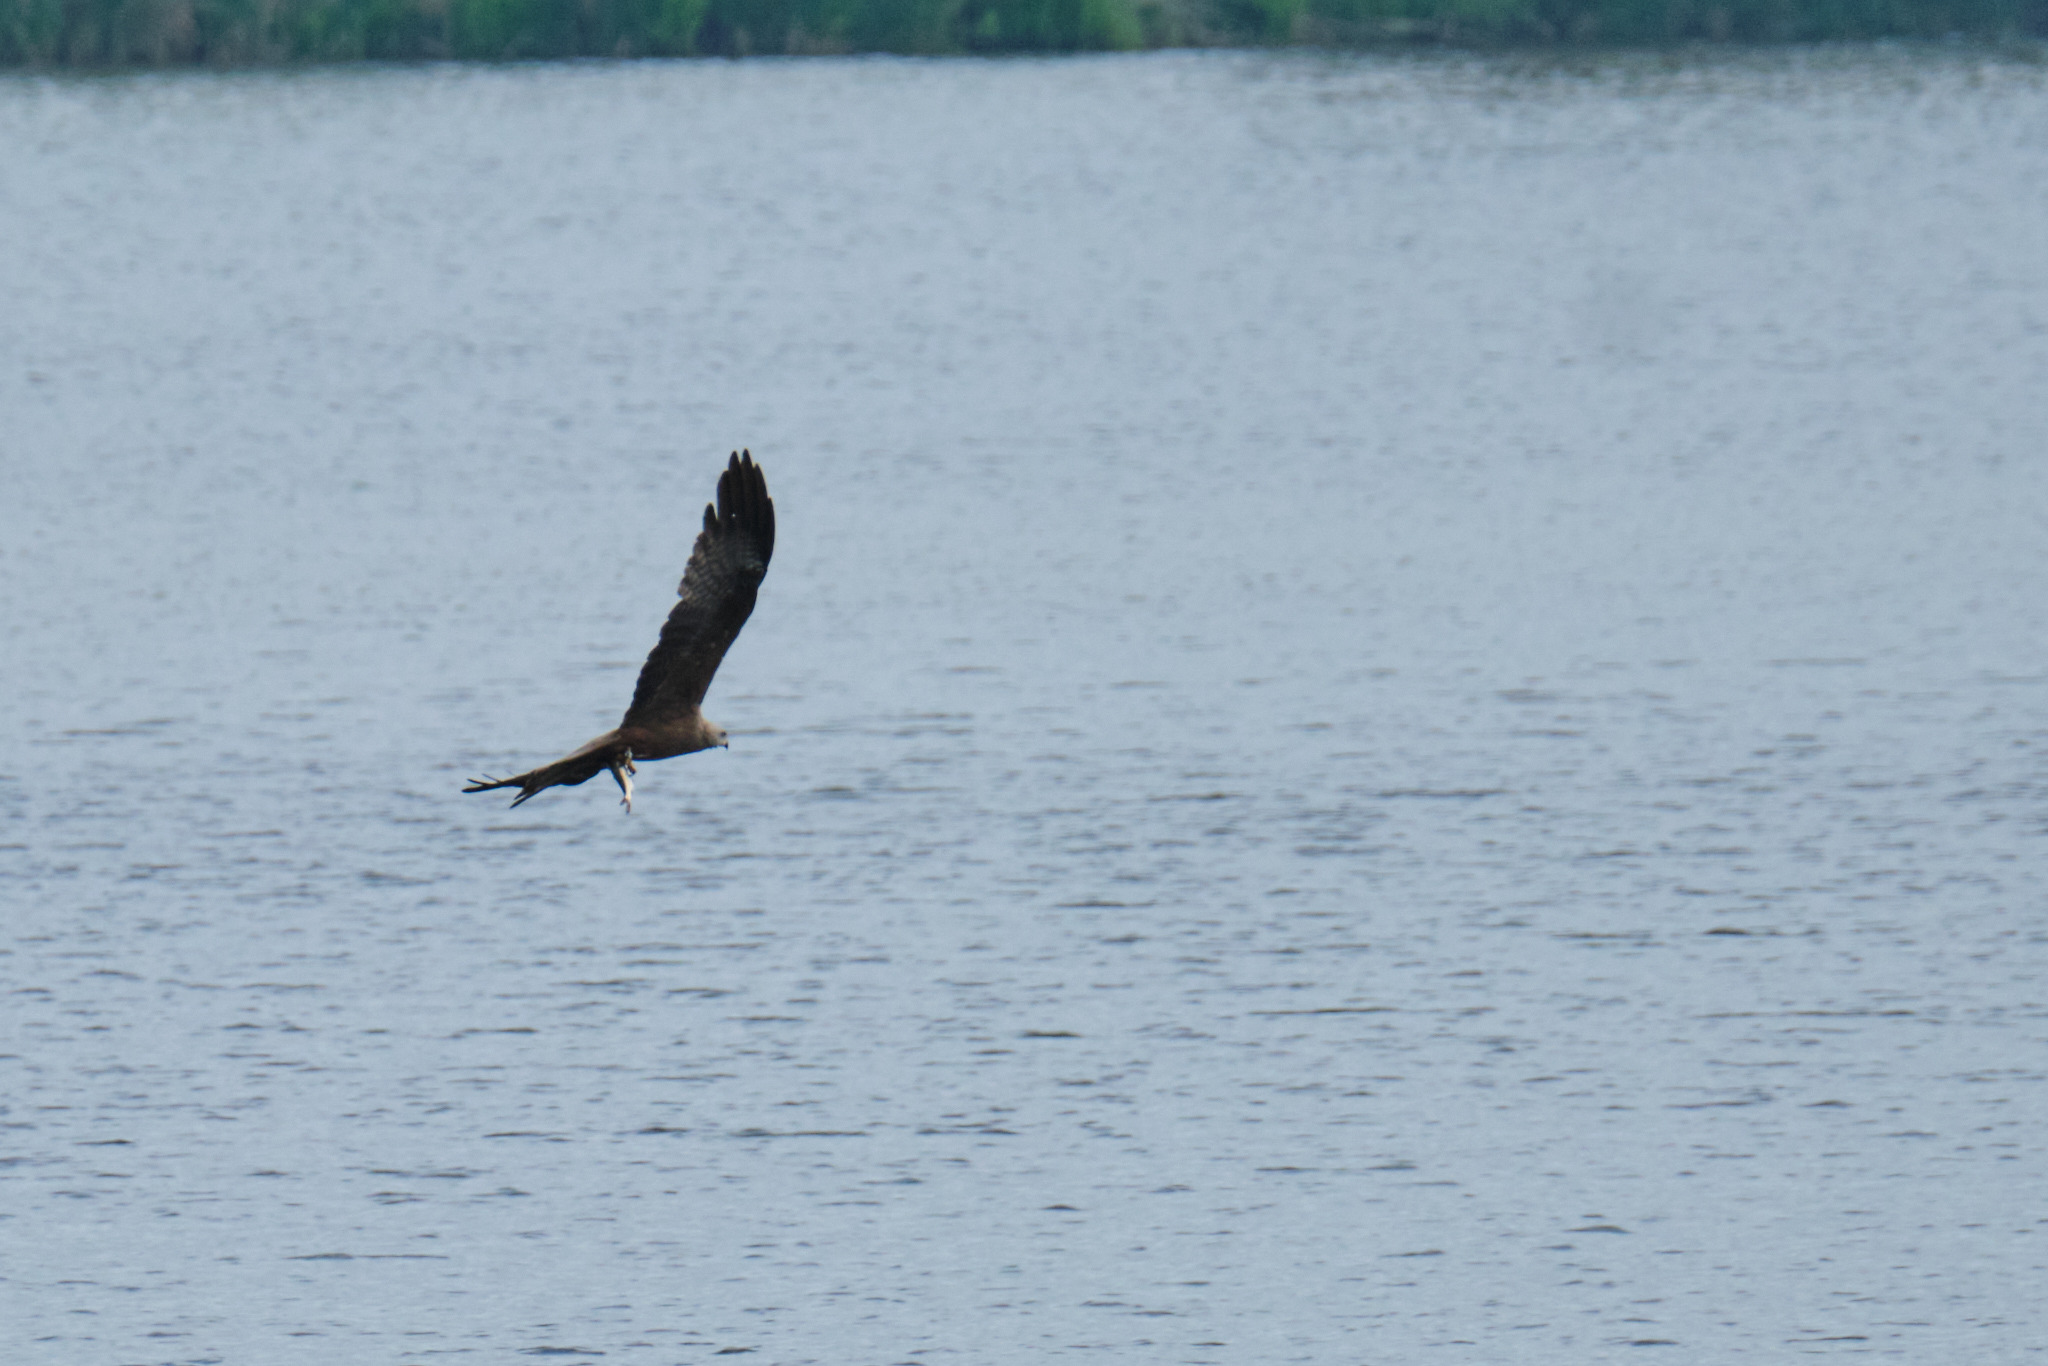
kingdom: Animalia
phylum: Chordata
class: Aves
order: Accipitriformes
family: Accipitridae
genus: Milvus
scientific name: Milvus migrans
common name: Black kite
